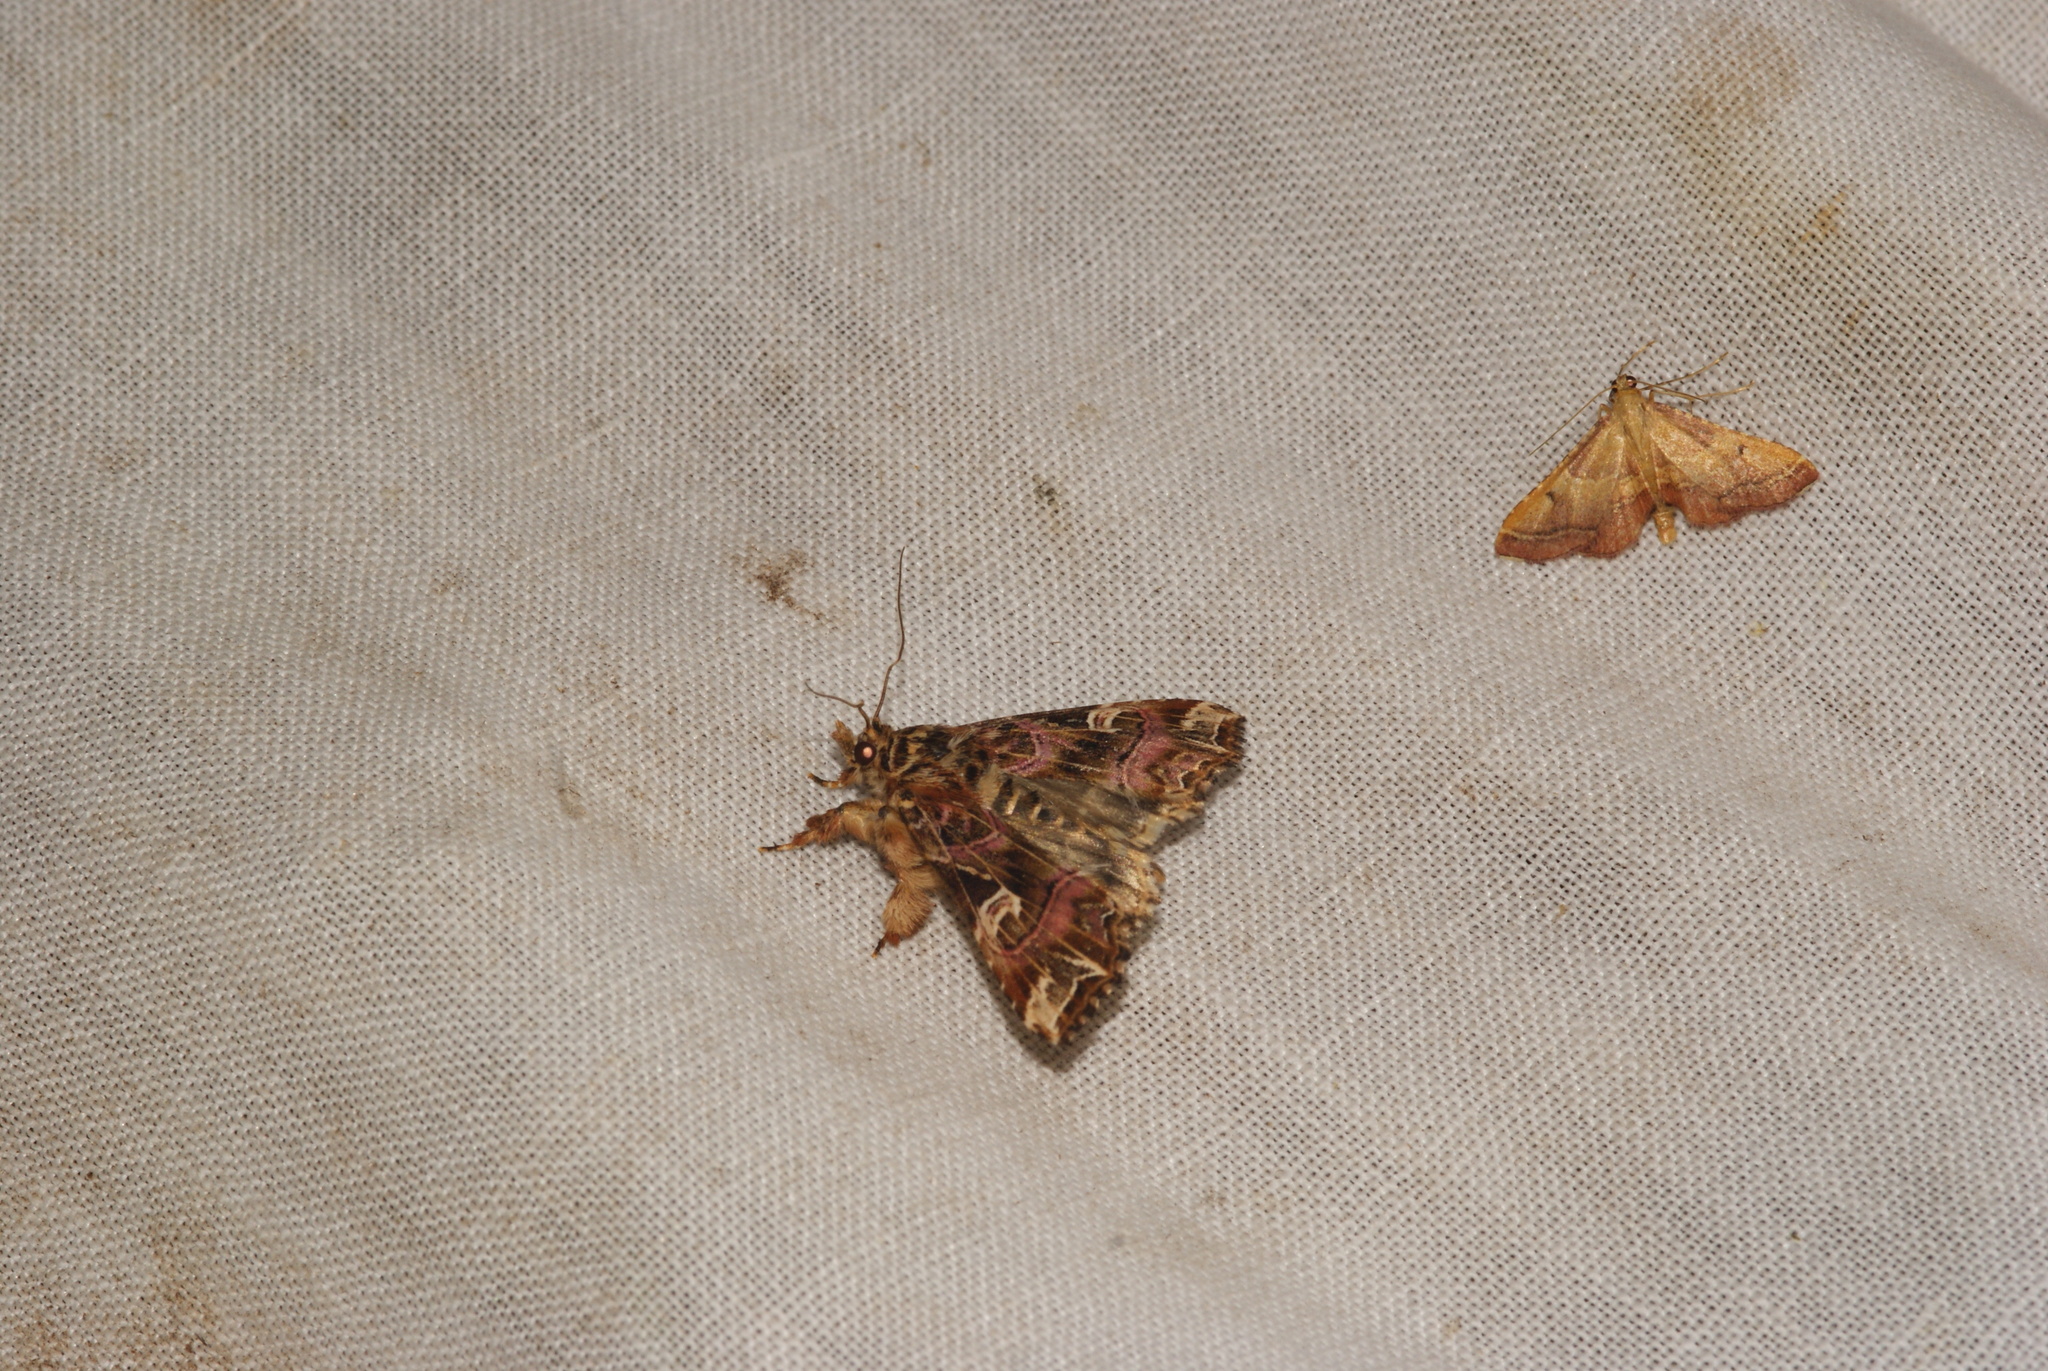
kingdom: Animalia
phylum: Arthropoda
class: Insecta
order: Lepidoptera
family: Noctuidae
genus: Callopistria
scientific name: Callopistria juventina
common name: Latin
